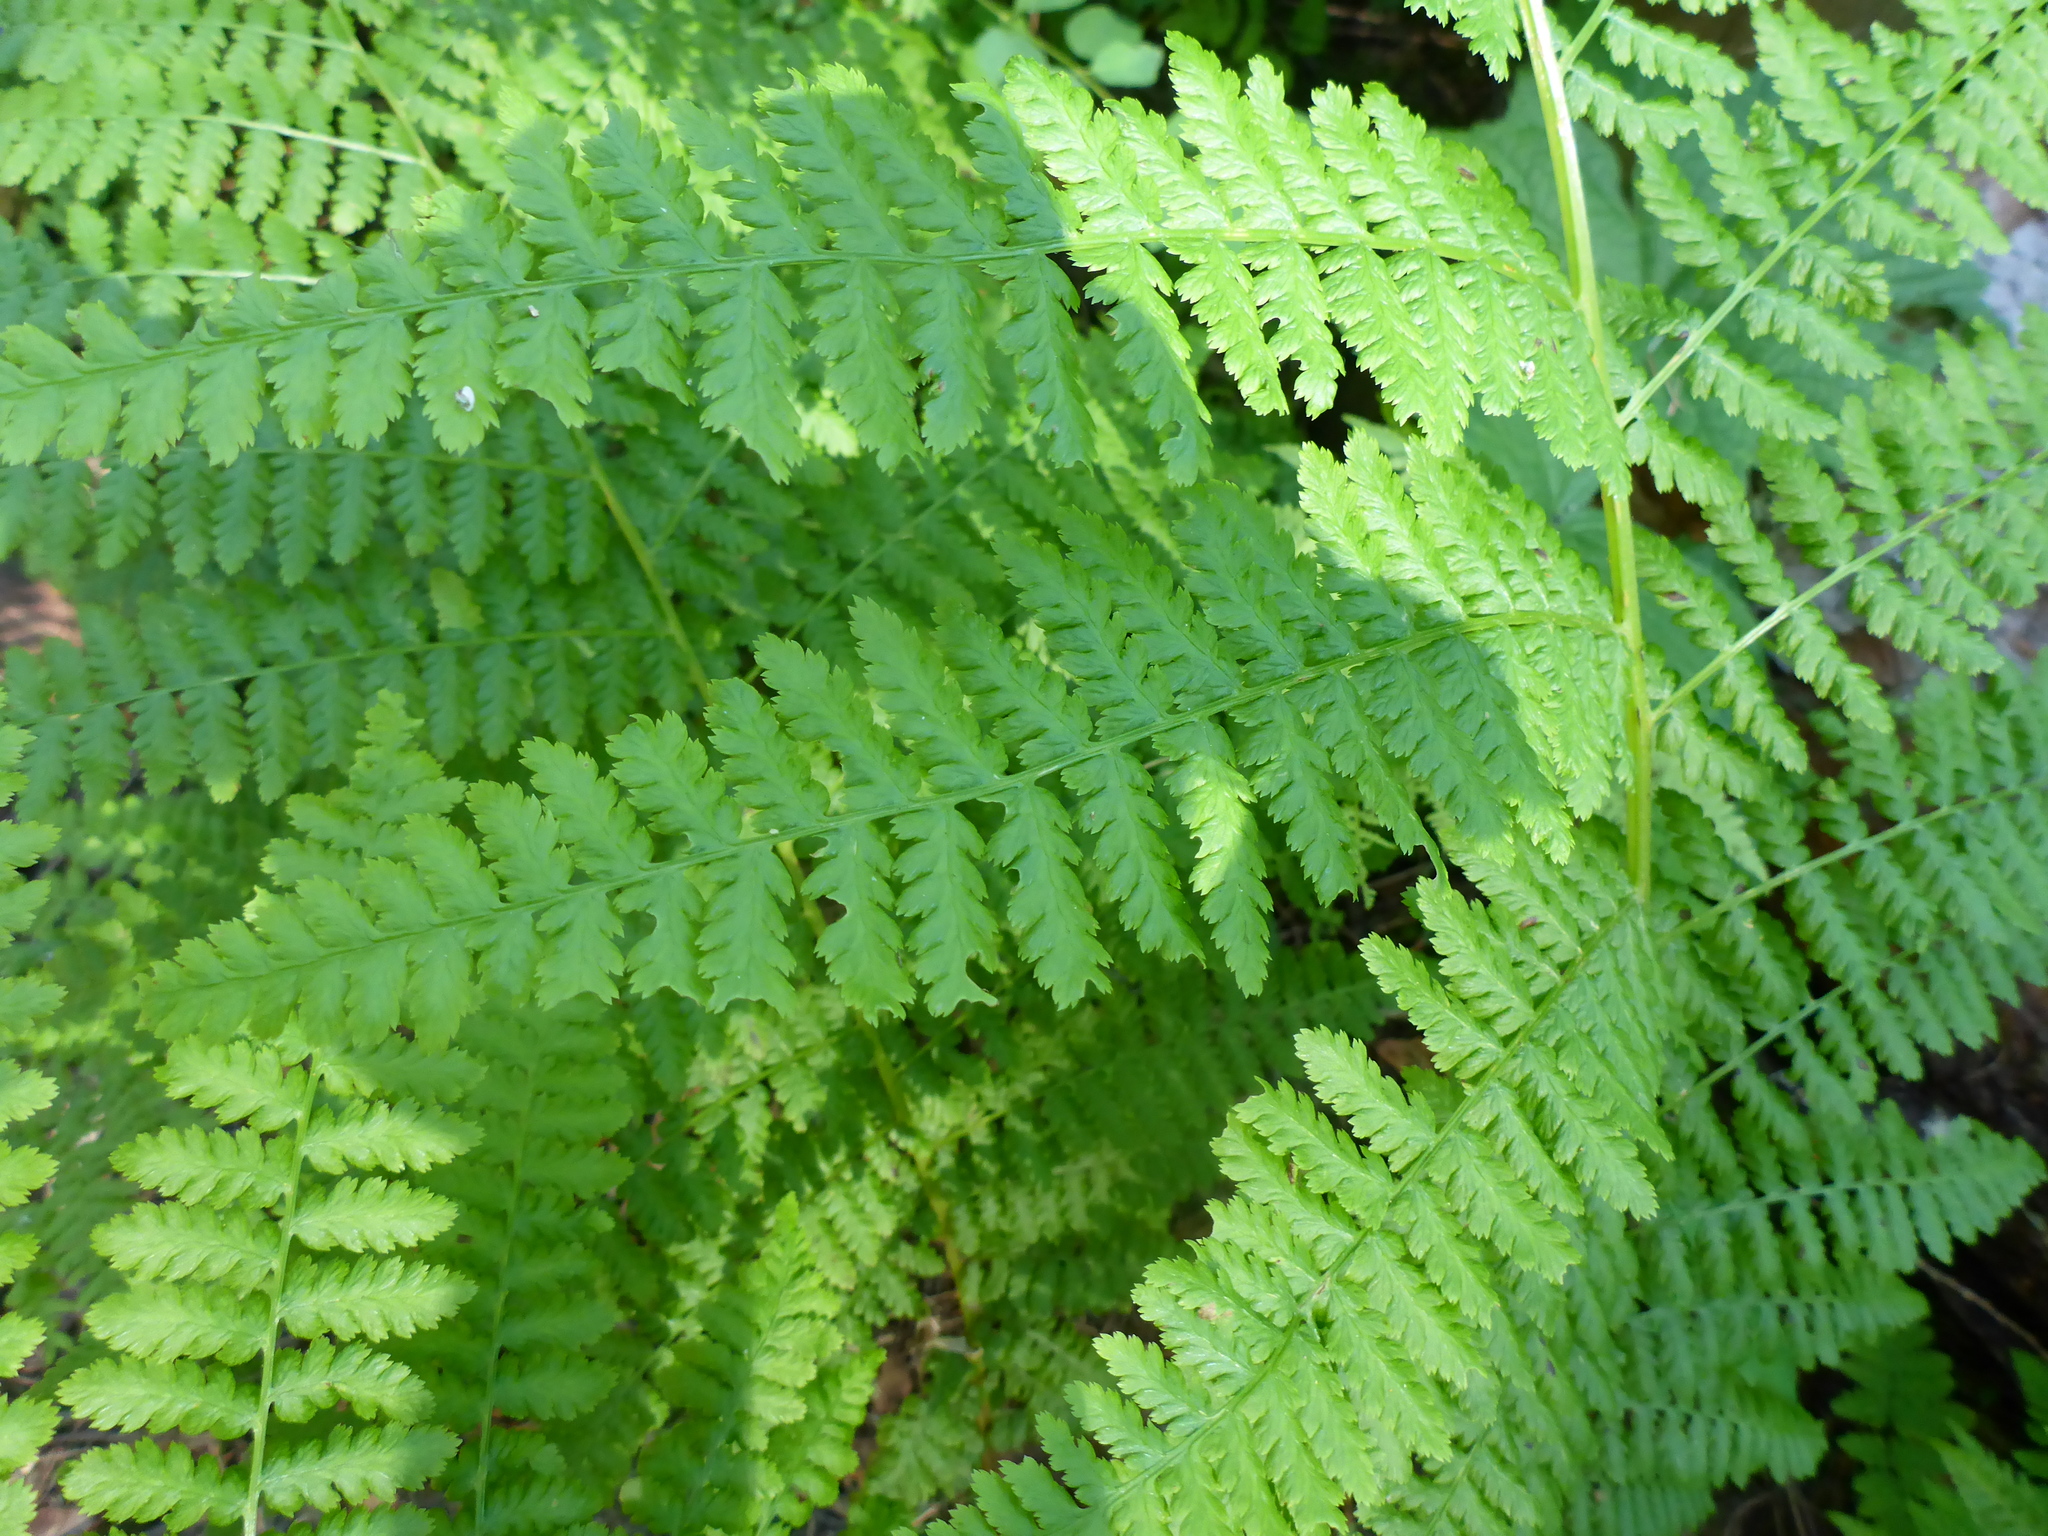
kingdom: Plantae
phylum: Tracheophyta
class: Polypodiopsida
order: Polypodiales
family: Athyriaceae
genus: Athyrium
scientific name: Athyrium filix-femina
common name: Lady fern
